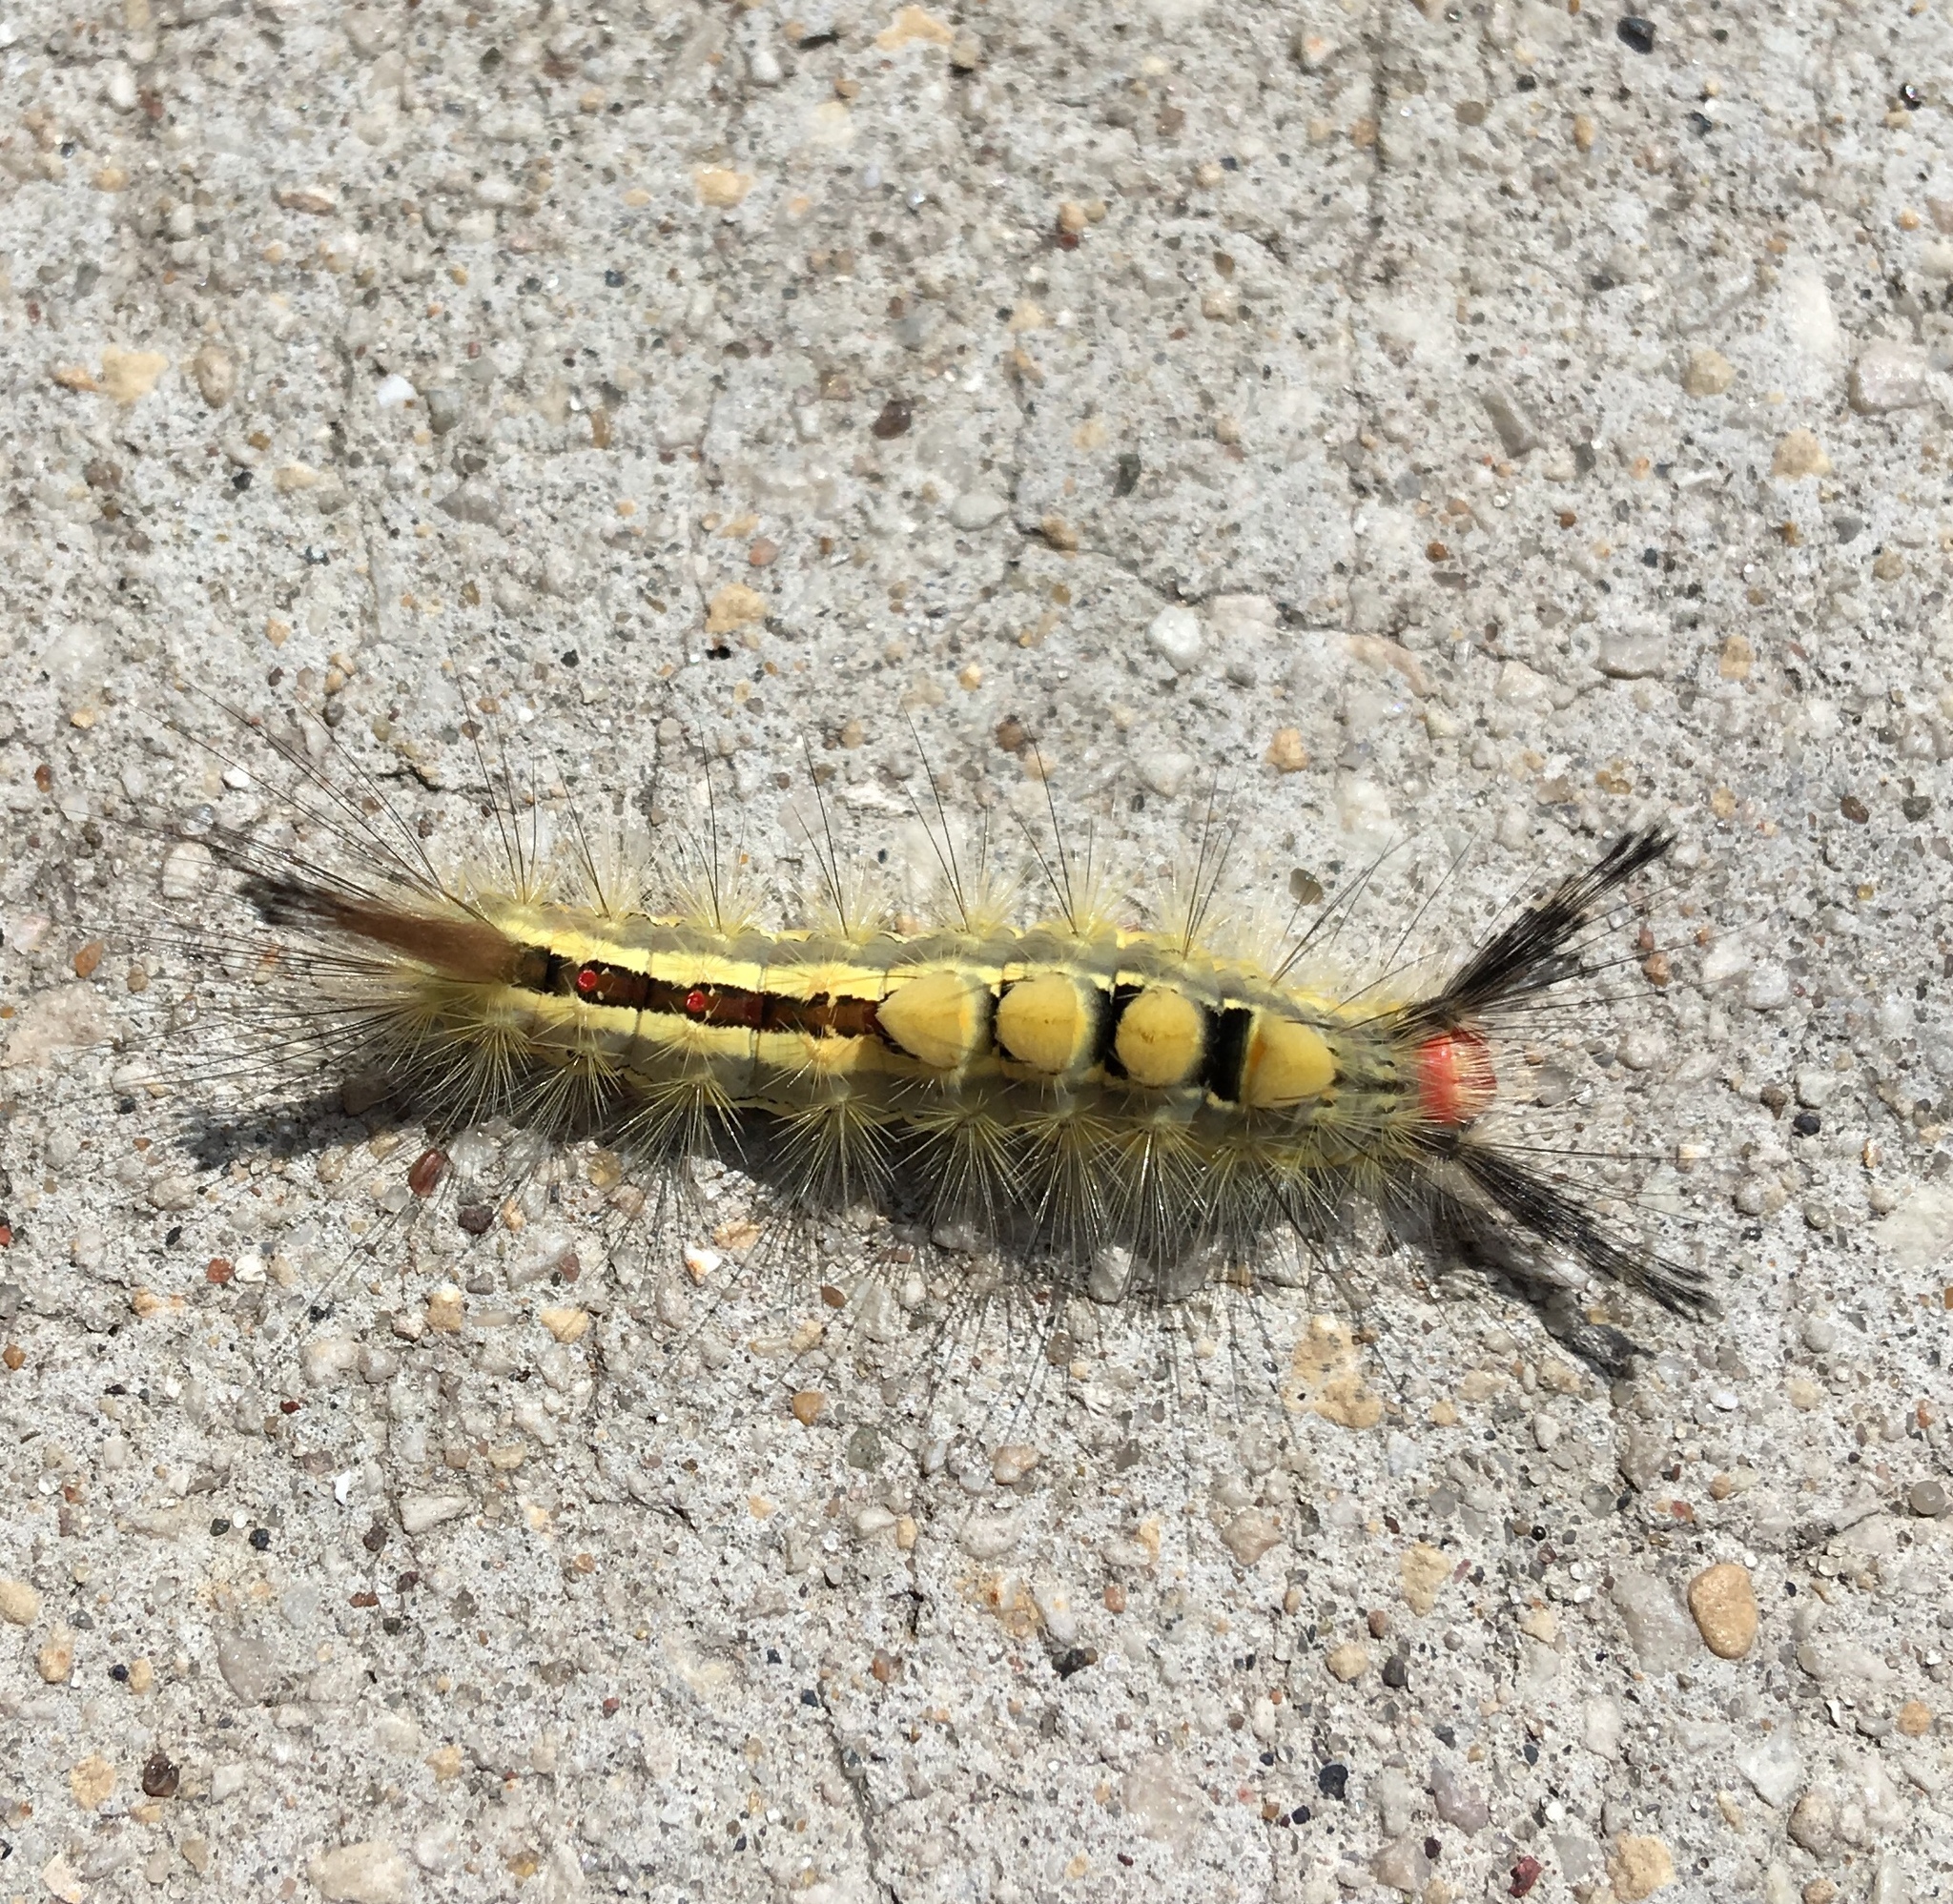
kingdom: Animalia
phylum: Arthropoda
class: Insecta
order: Lepidoptera
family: Erebidae
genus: Orgyia
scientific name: Orgyia leucostigma
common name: White-marked tussock moth
